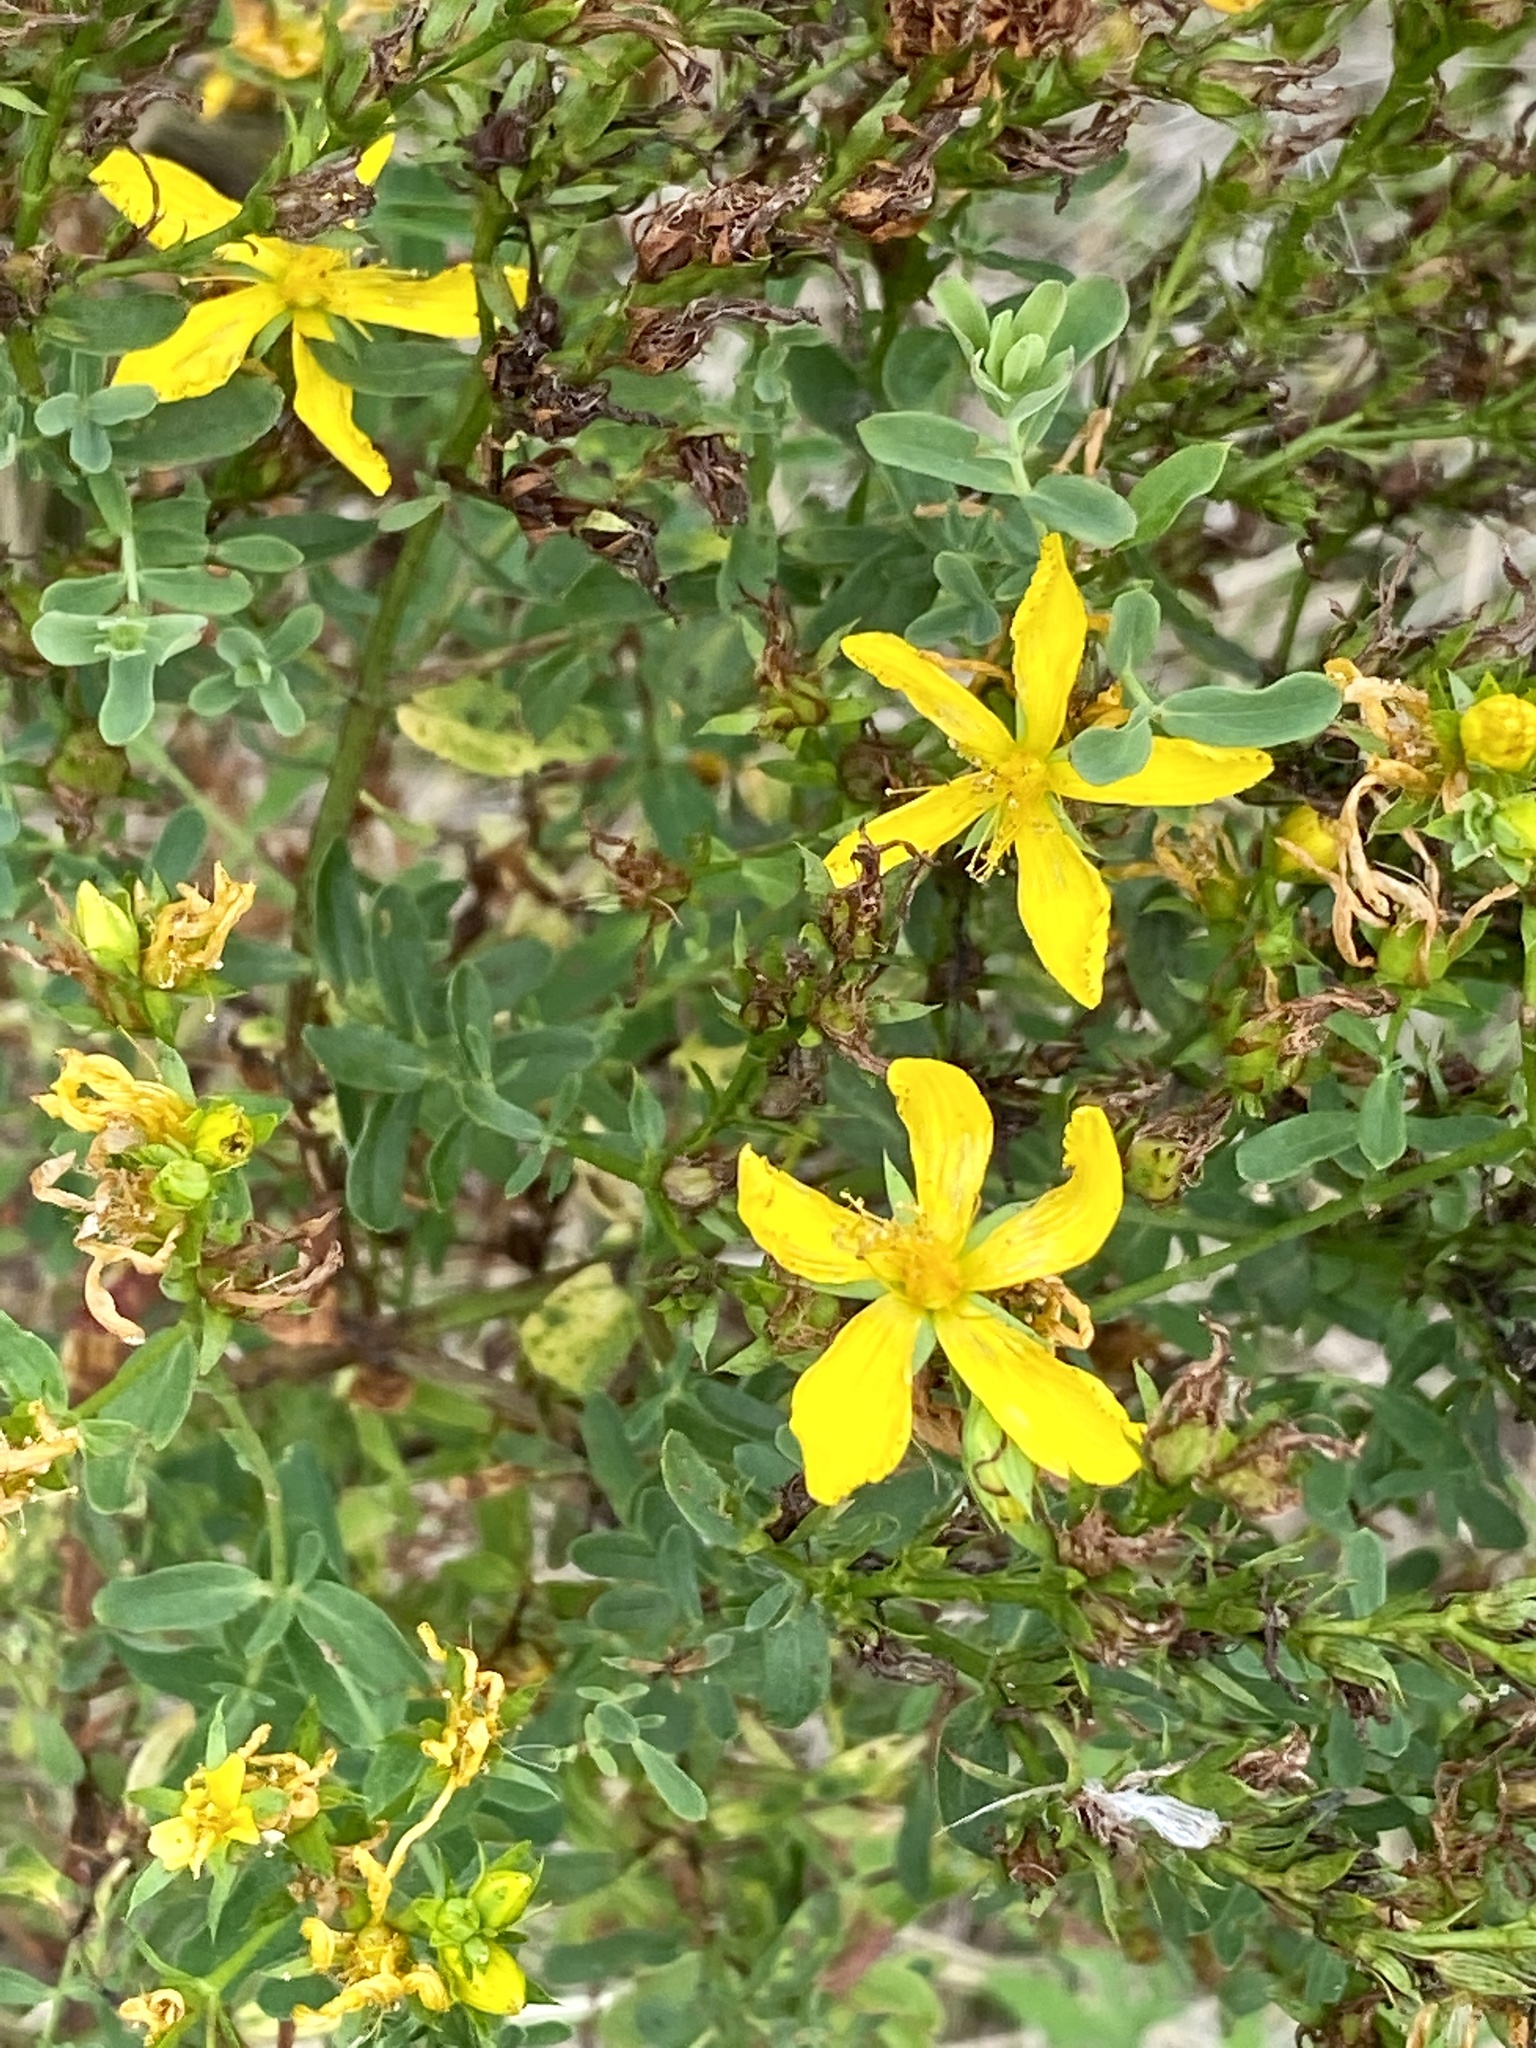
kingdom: Plantae
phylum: Tracheophyta
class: Magnoliopsida
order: Malpighiales
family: Hypericaceae
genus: Hypericum
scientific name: Hypericum perforatum
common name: Common st. johnswort
